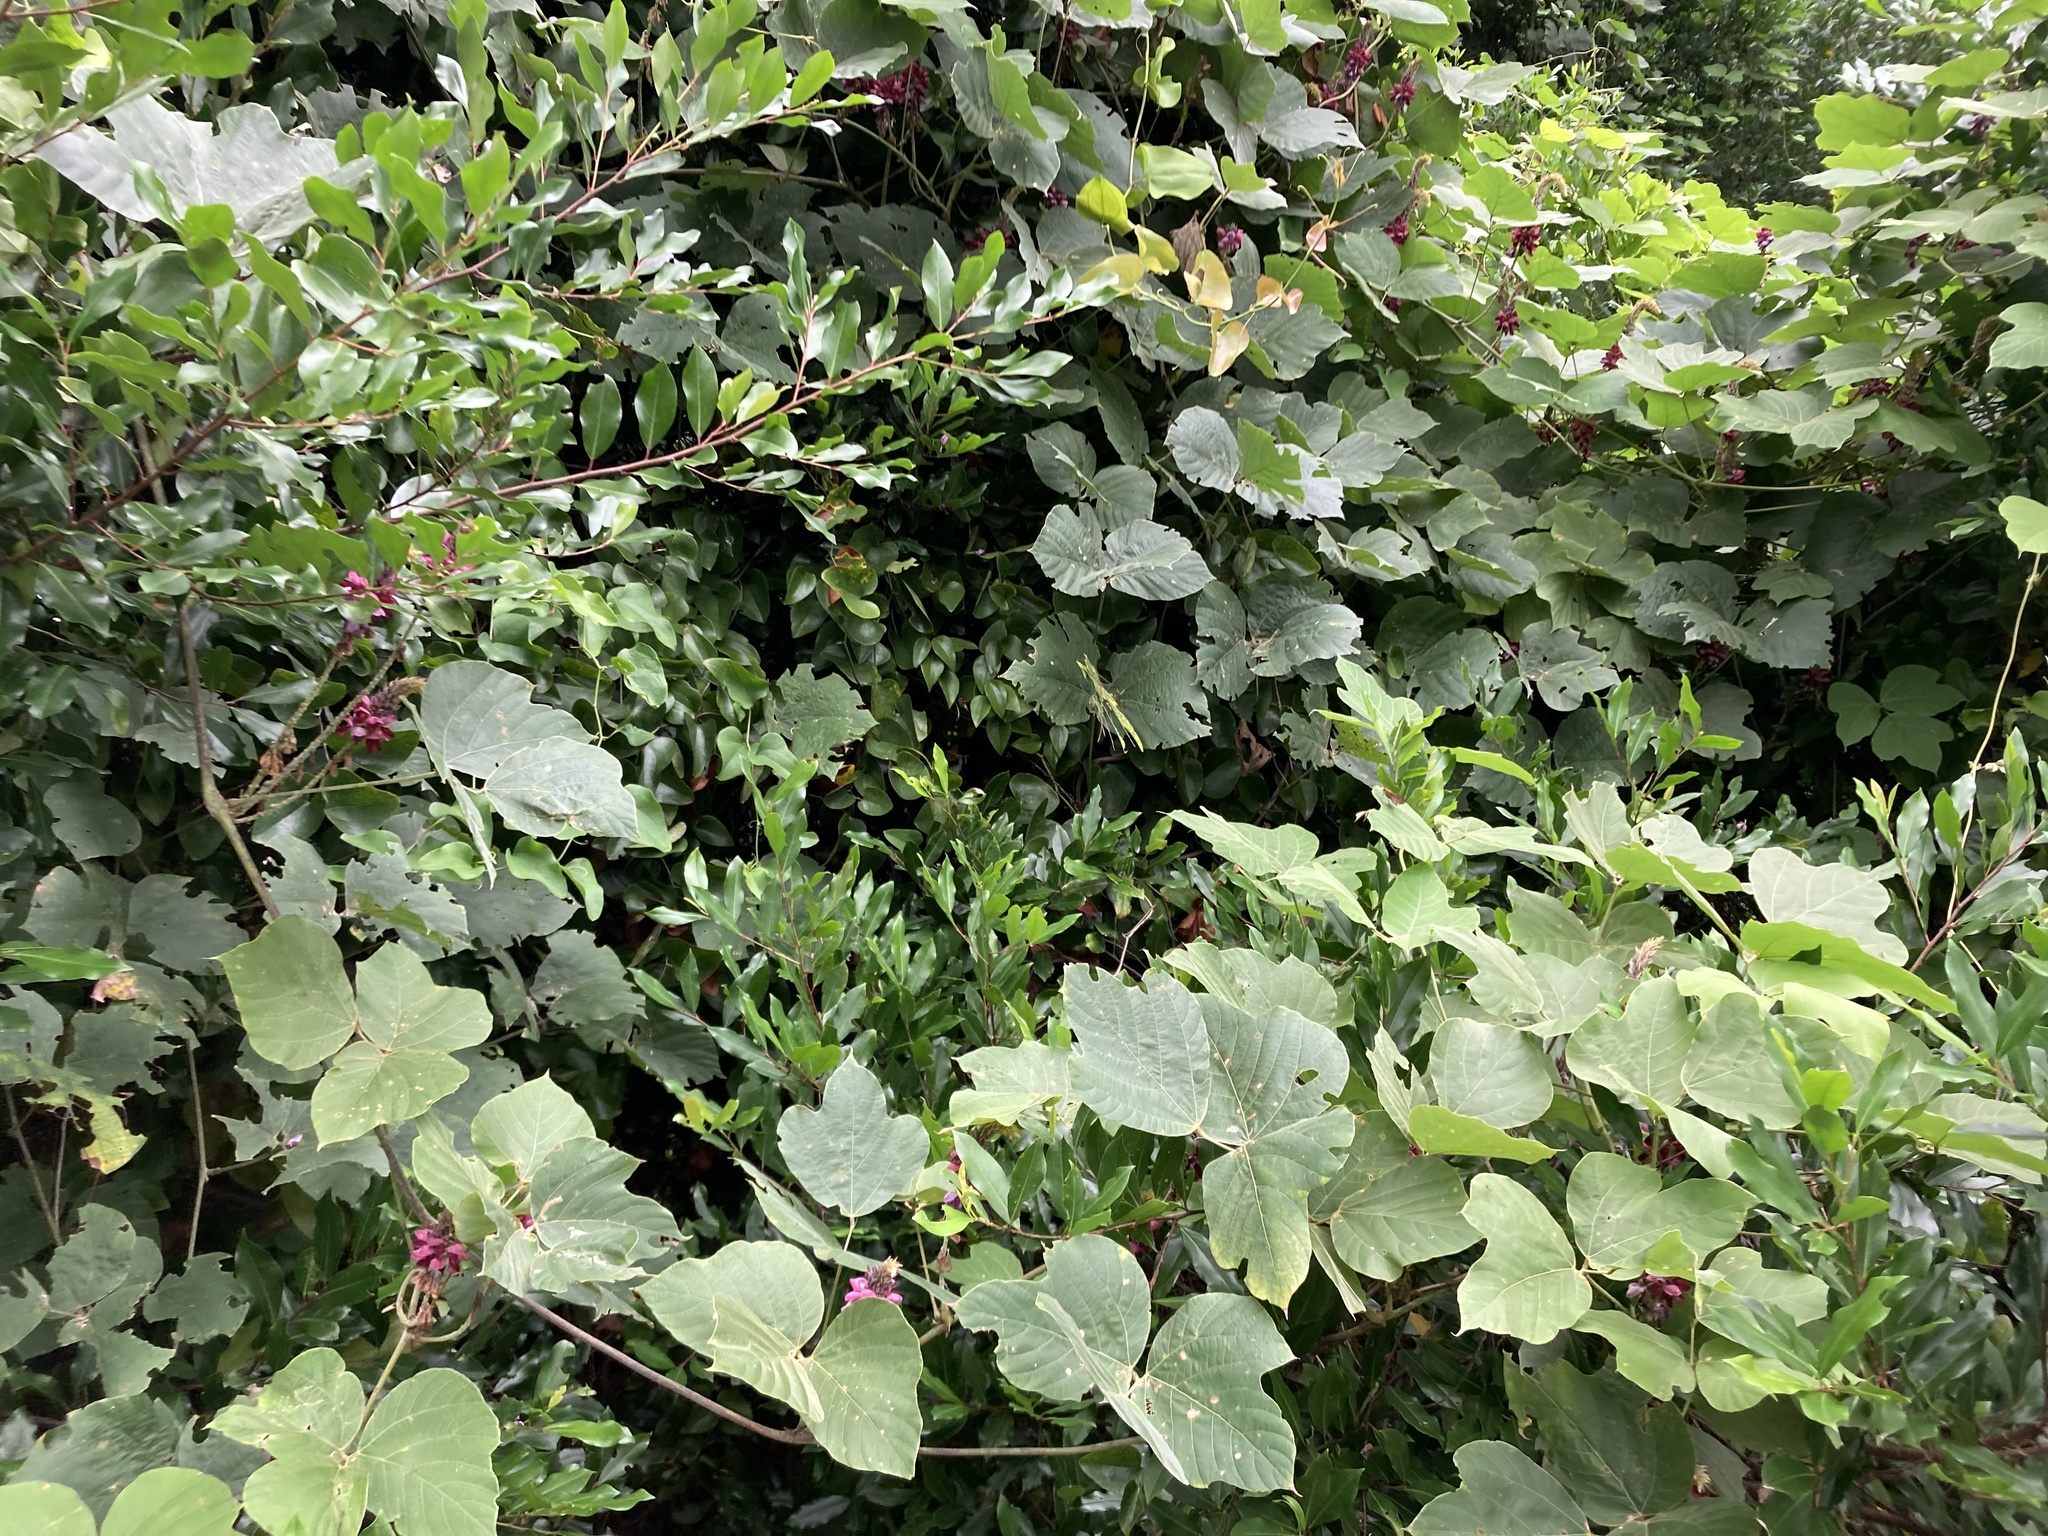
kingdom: Plantae
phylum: Tracheophyta
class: Magnoliopsida
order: Fabales
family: Fabaceae
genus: Pueraria
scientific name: Pueraria montana
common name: Kudzu
